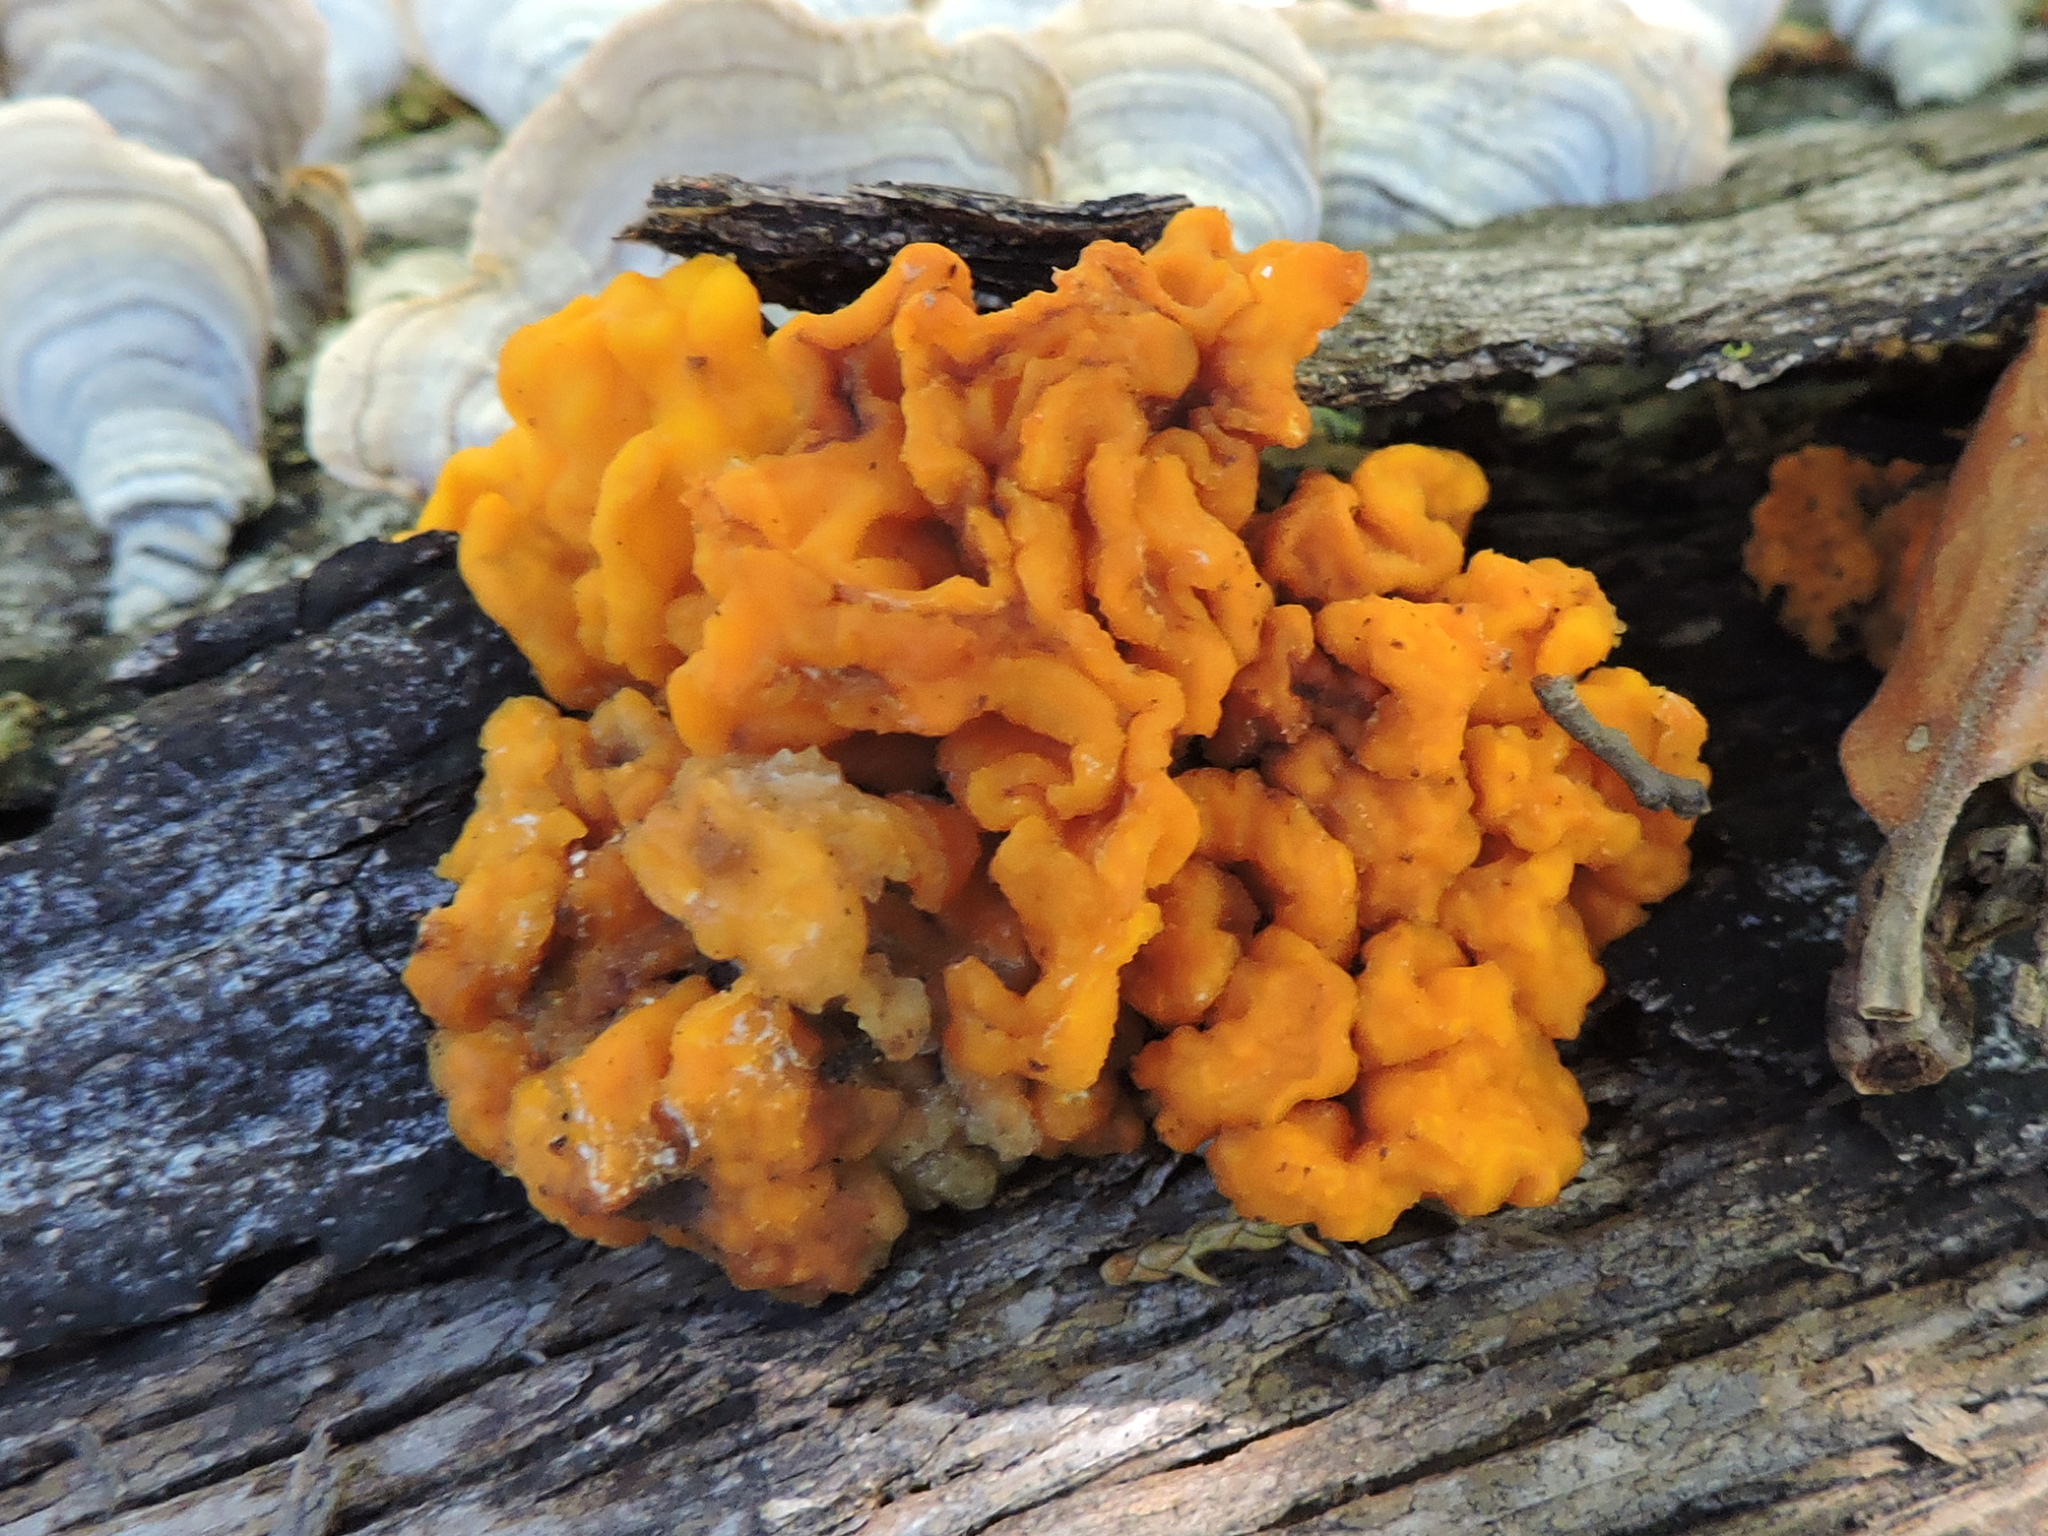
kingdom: Fungi
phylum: Basidiomycota
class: Tremellomycetes
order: Tremellales
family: Naemateliaceae
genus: Naematelia
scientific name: Naematelia aurantia
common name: Golden ear
